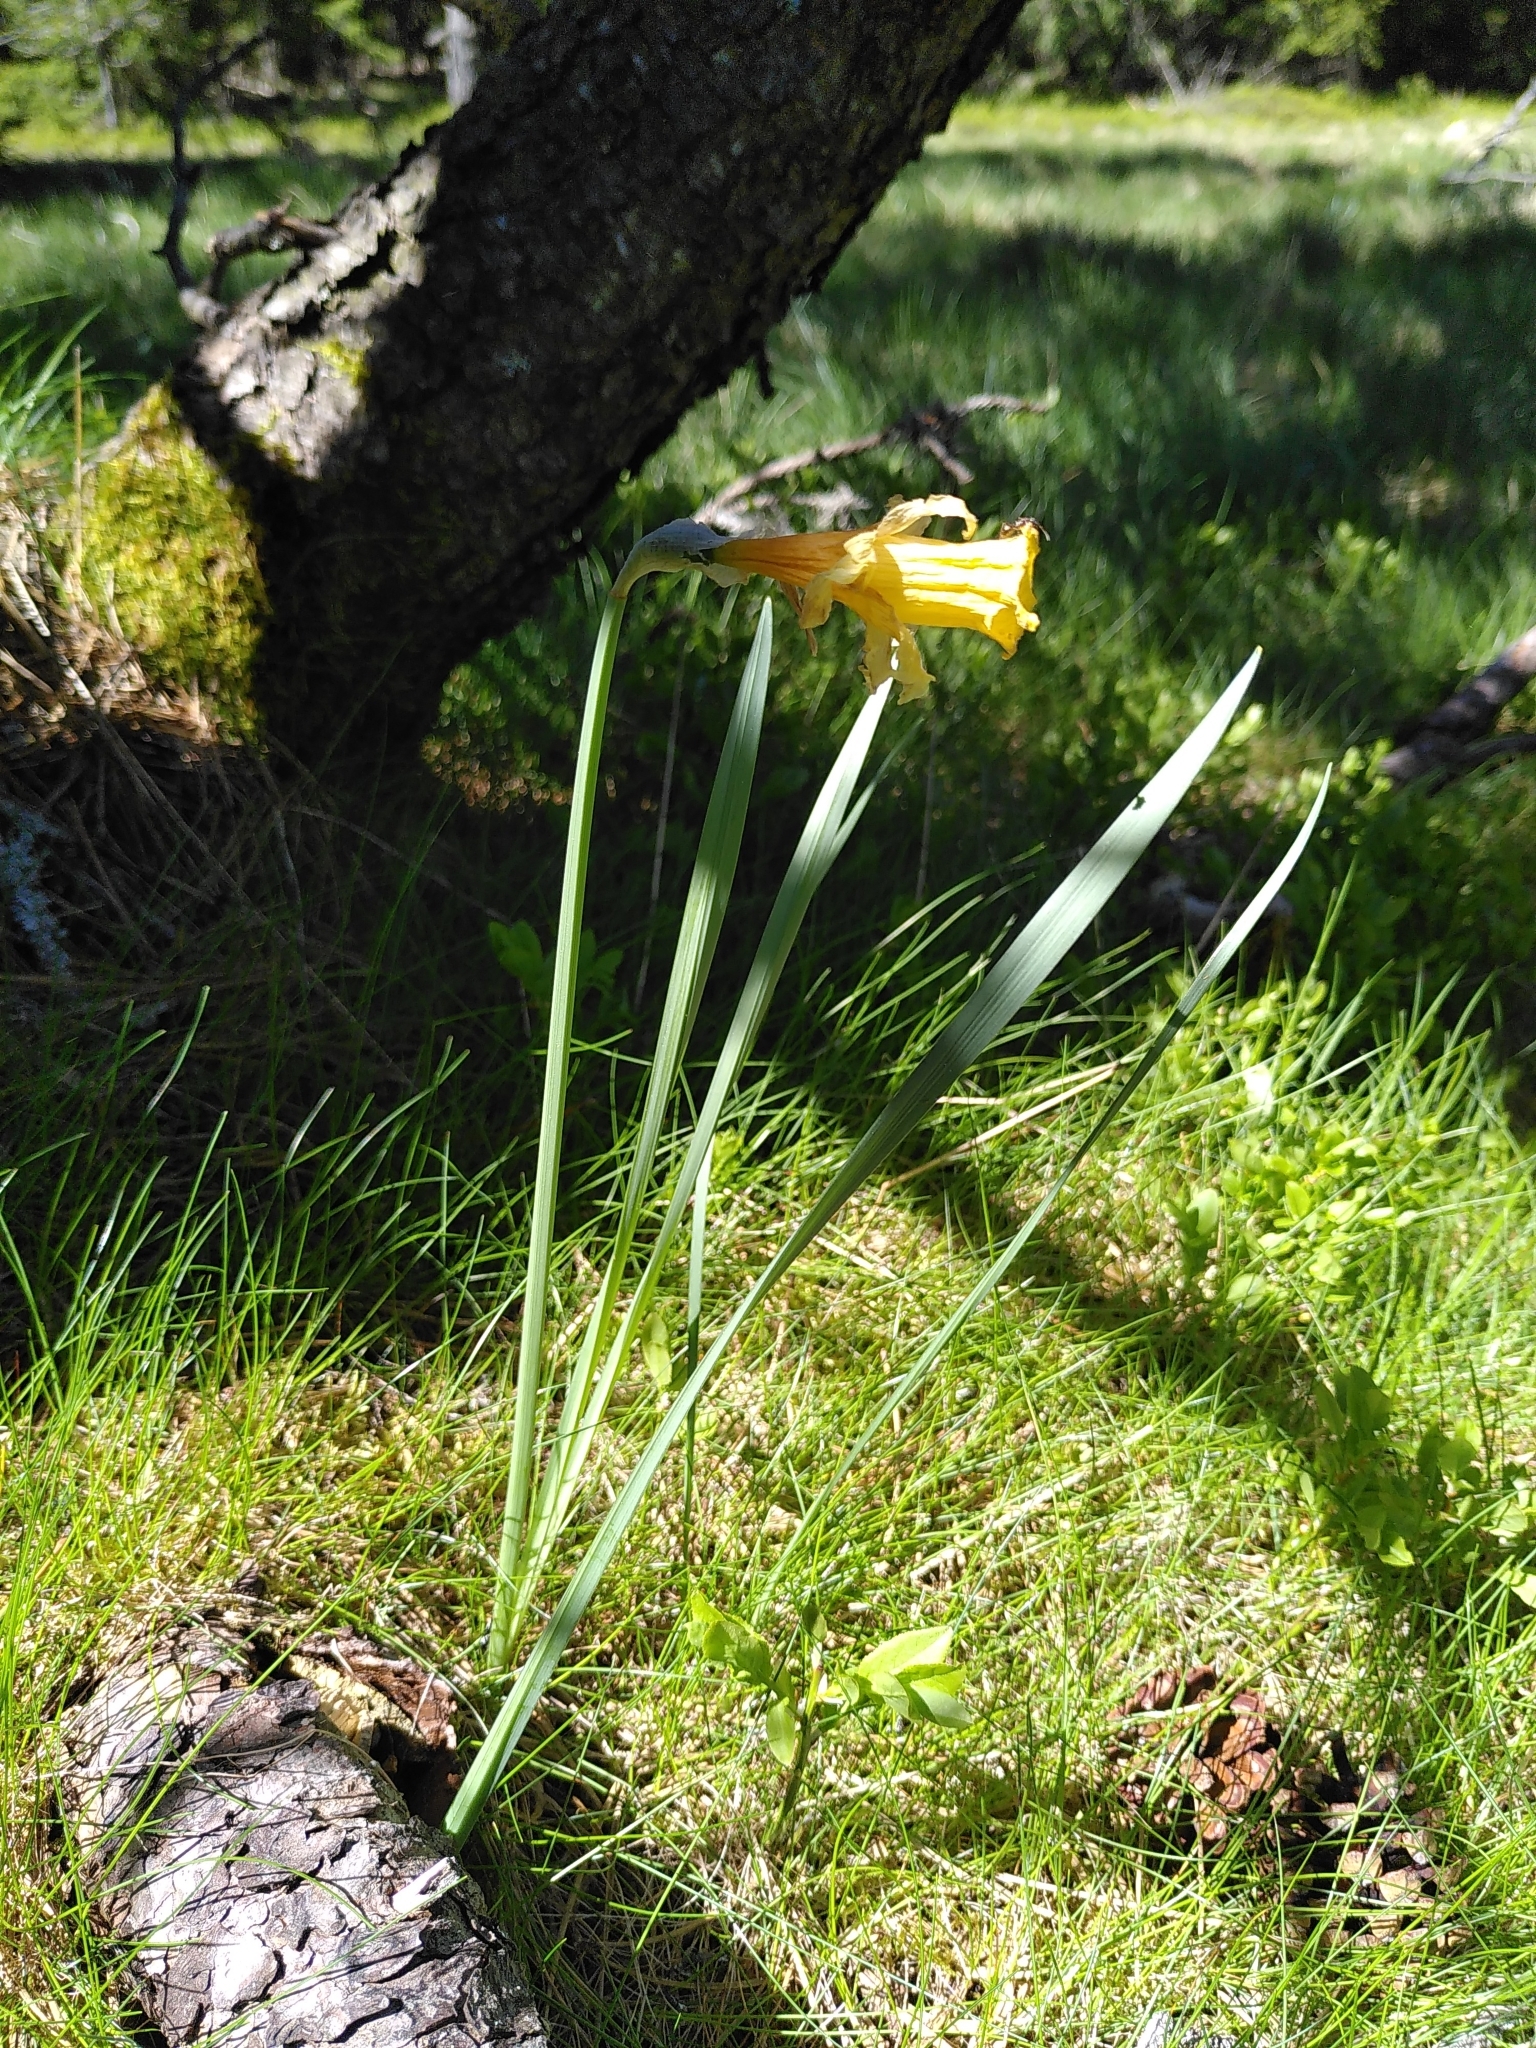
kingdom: Plantae
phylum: Tracheophyta
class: Liliopsida
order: Asparagales
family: Amaryllidaceae
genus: Narcissus
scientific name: Narcissus pseudonarcissus
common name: Daffodil
